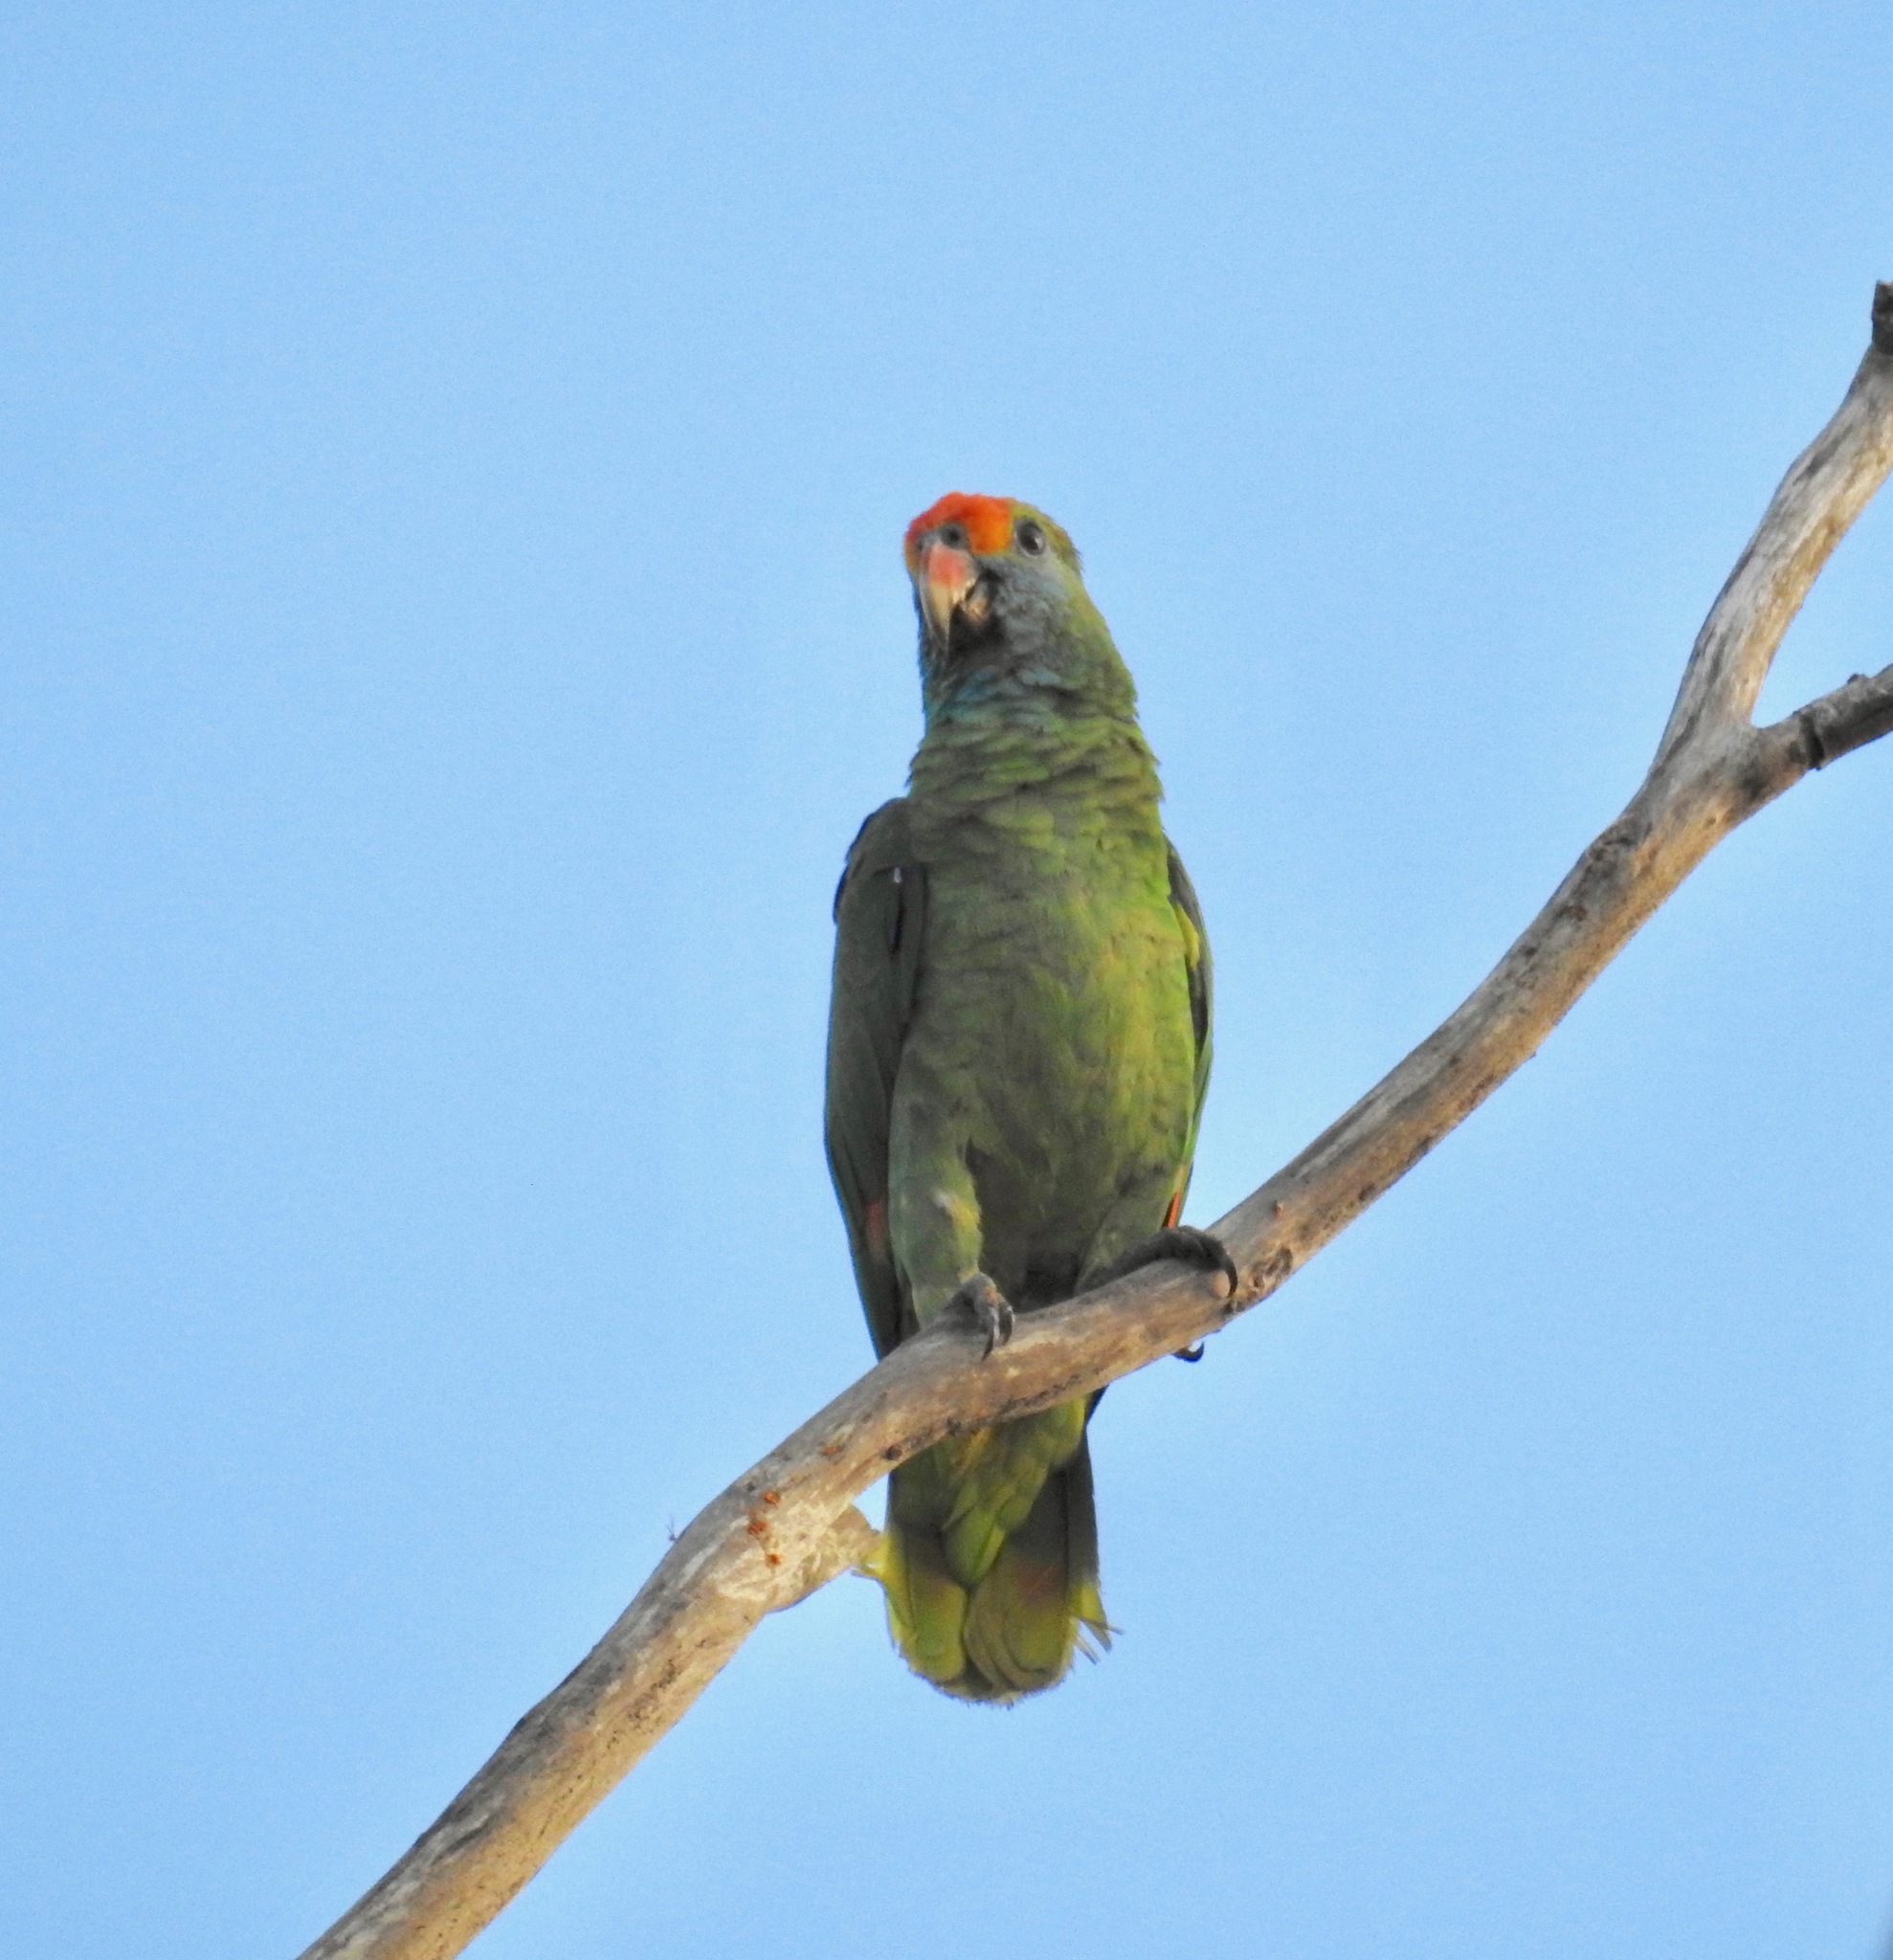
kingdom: Animalia
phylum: Chordata
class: Aves
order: Psittaciformes
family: Psittacidae
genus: Amazona
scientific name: Amazona rhodocorytha
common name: Red-browed amazon
